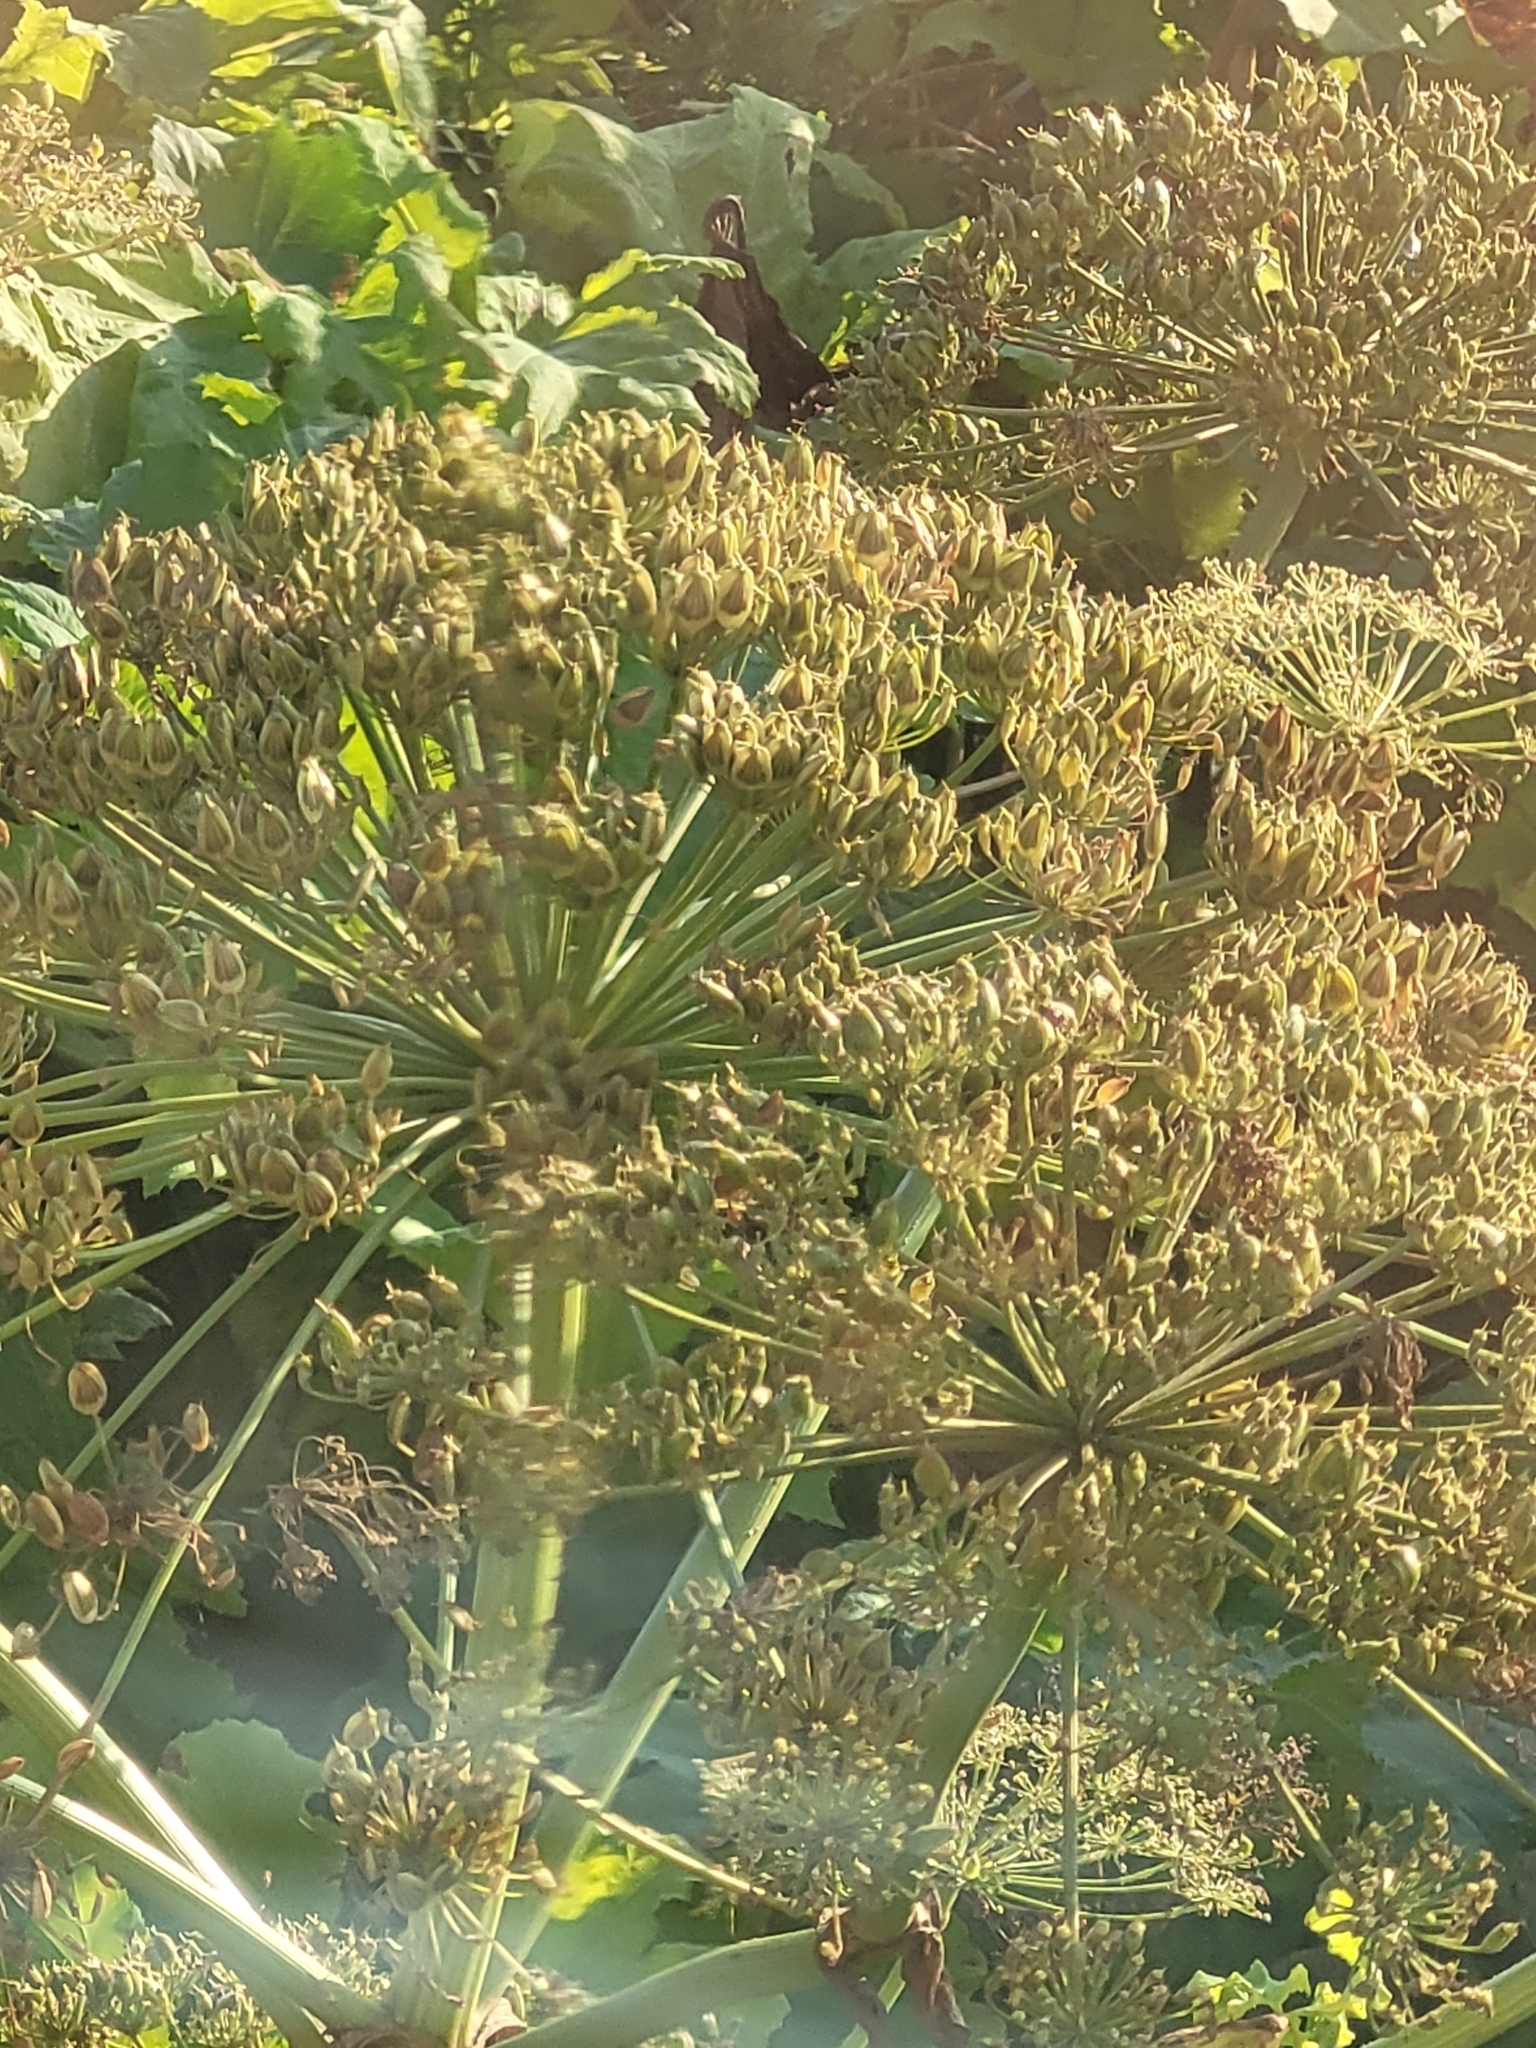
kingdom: Plantae
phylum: Tracheophyta
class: Magnoliopsida
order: Apiales
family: Apiaceae
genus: Heracleum
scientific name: Heracleum sosnowskyi
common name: Sosnowsky's hogweed
